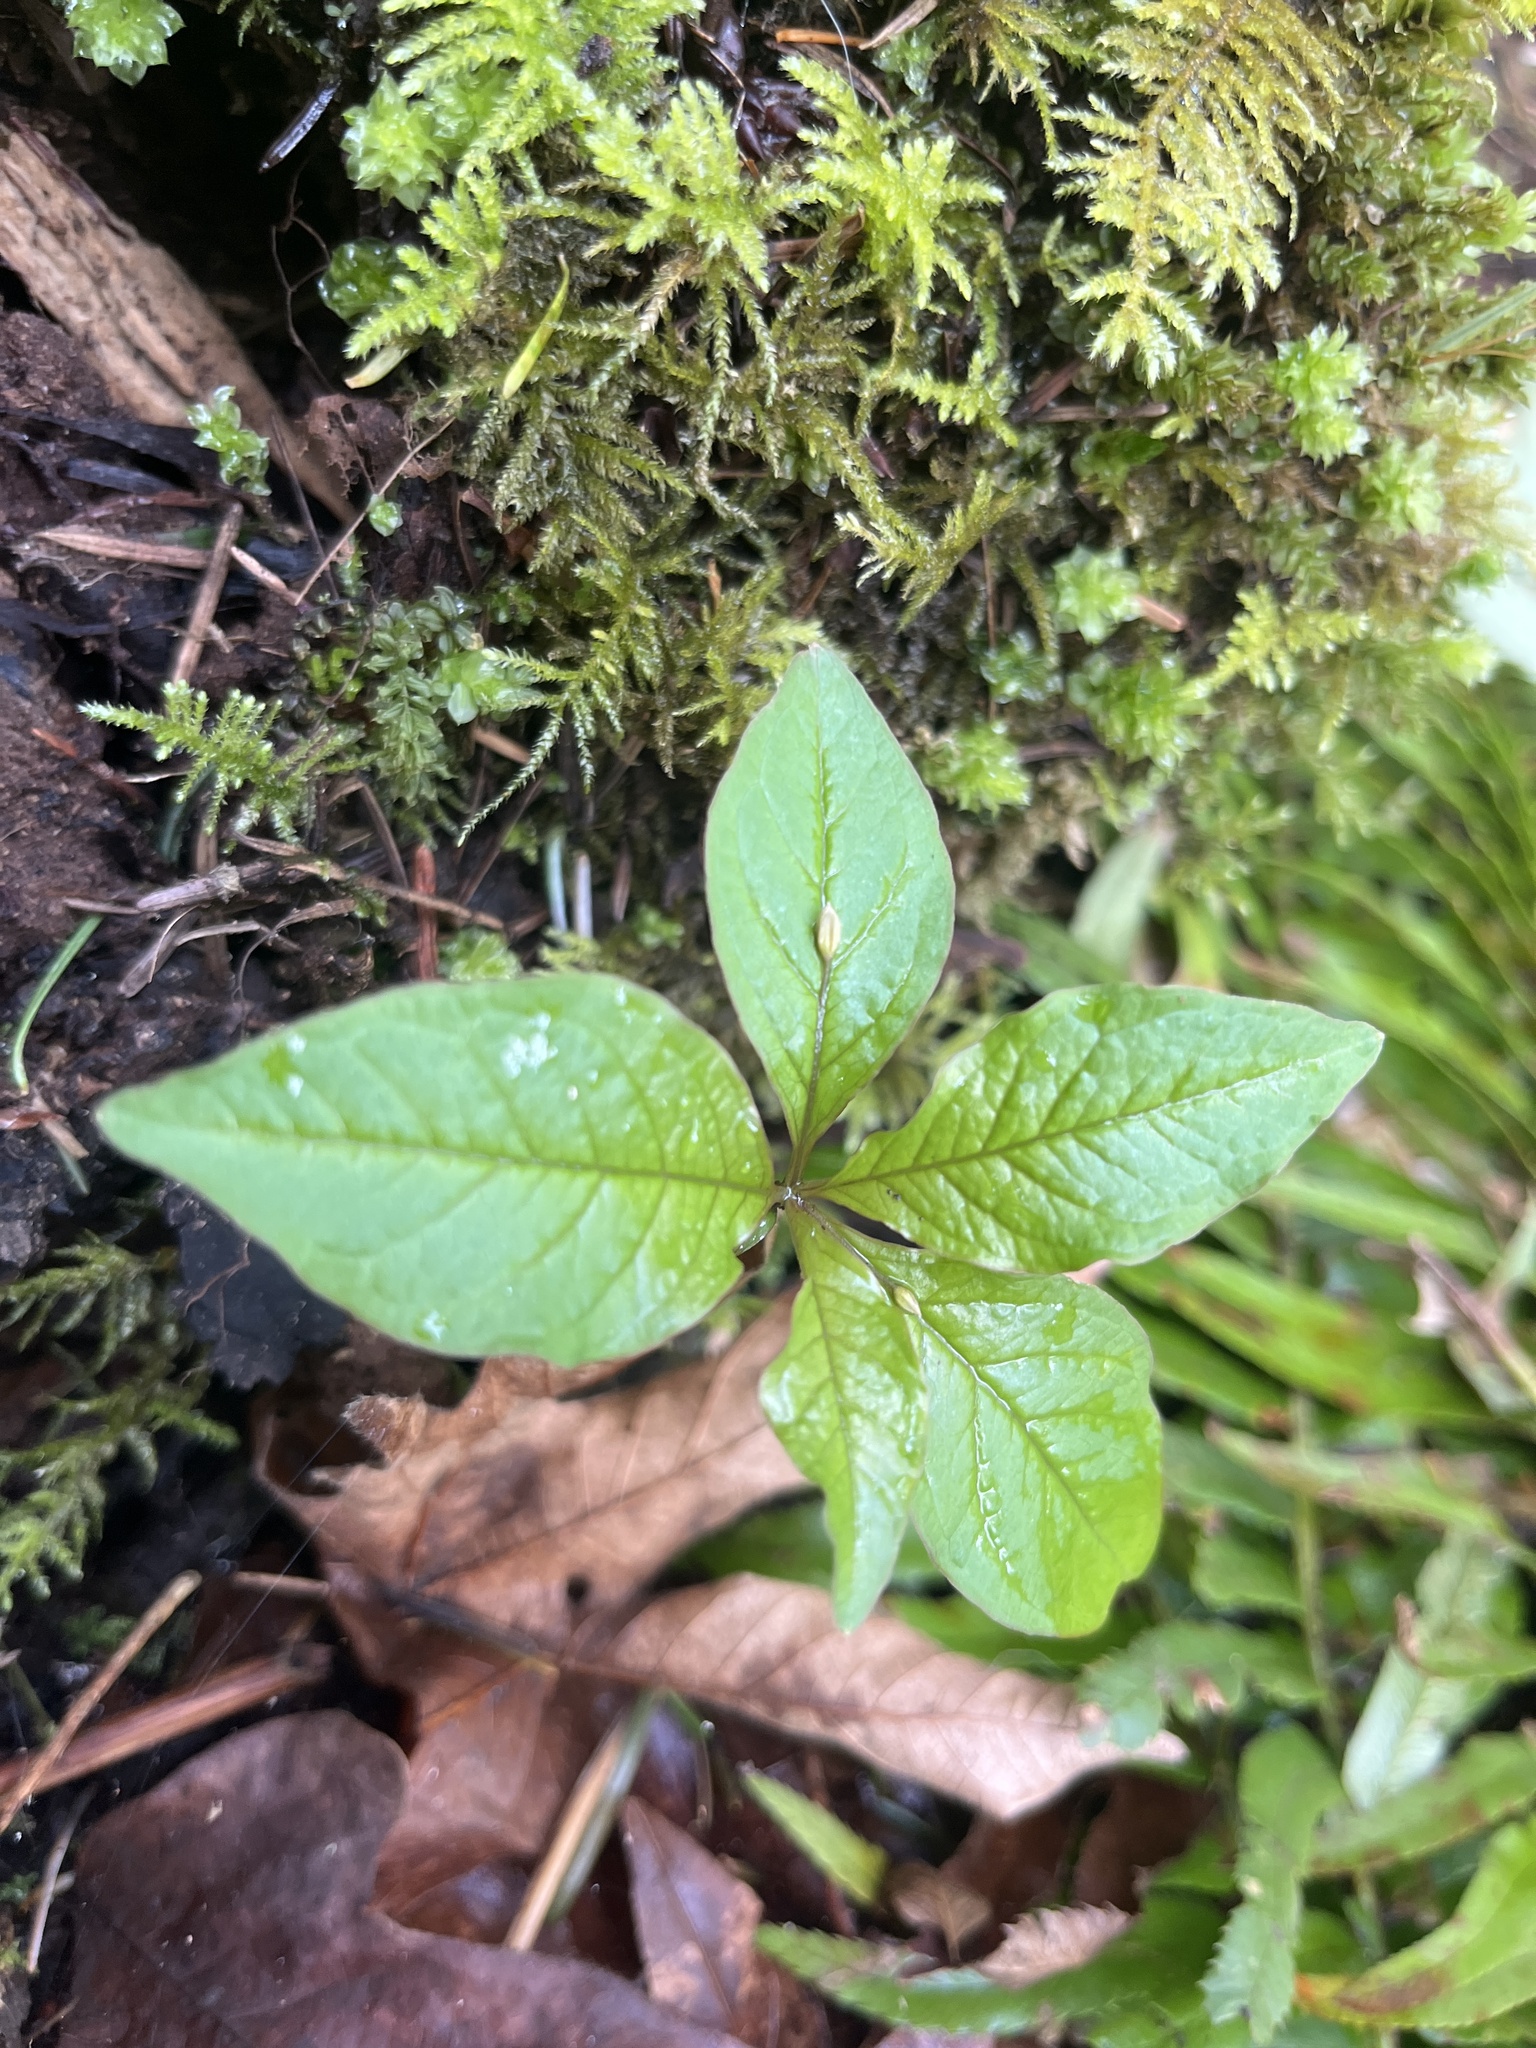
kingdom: Plantae
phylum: Tracheophyta
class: Magnoliopsida
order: Ericales
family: Primulaceae
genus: Lysimachia
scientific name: Lysimachia latifolia
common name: Pacific starflower
